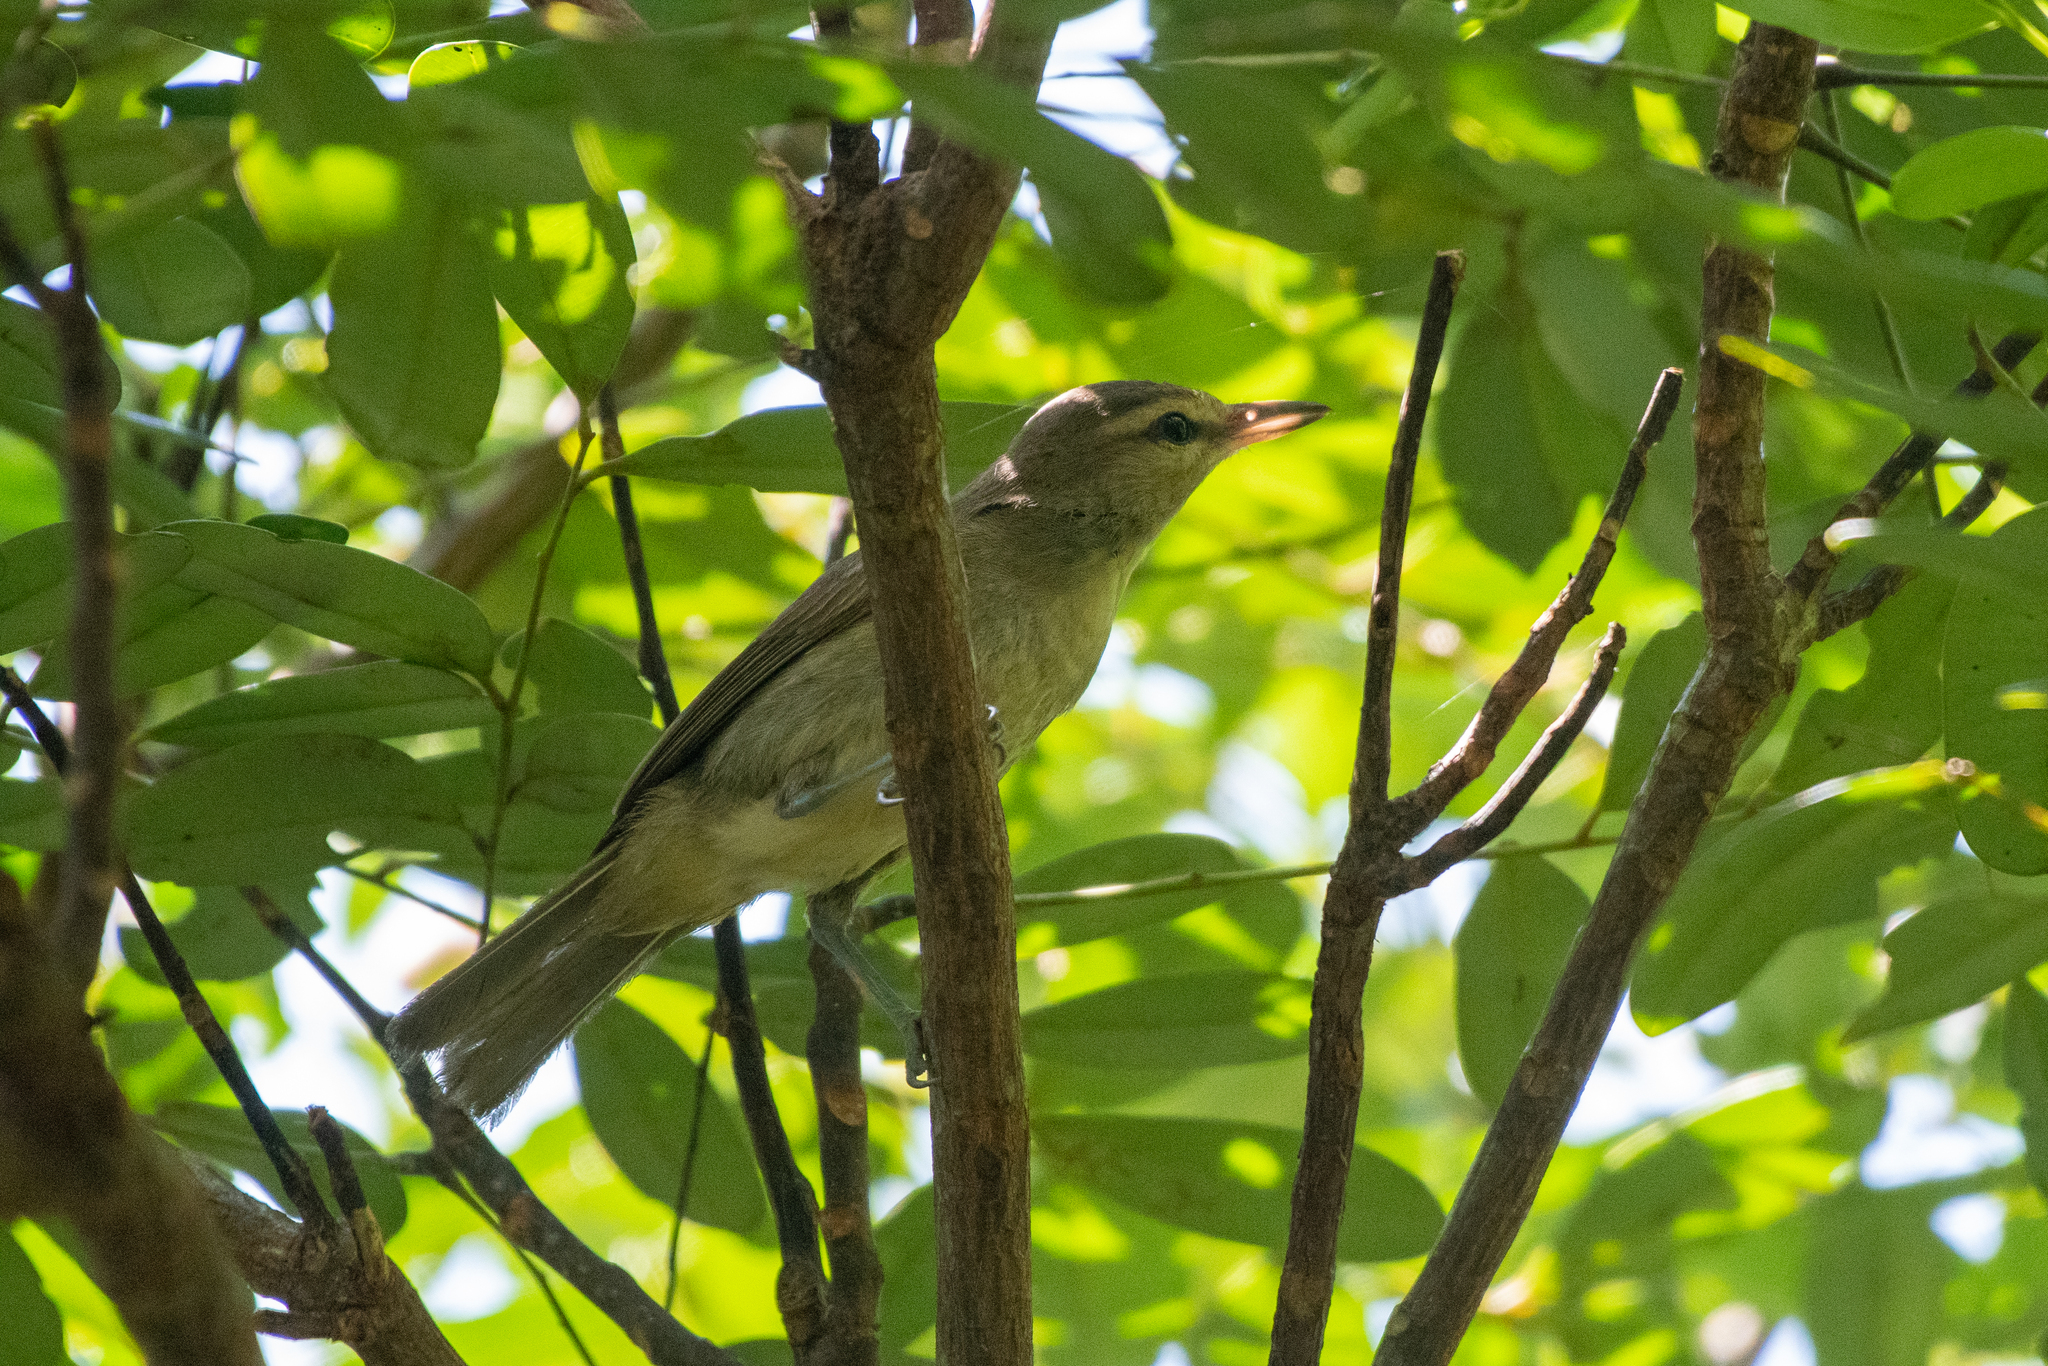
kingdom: Animalia
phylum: Chordata
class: Aves
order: Passeriformes
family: Vireonidae
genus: Vireo
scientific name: Vireo magister
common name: Yucatan vireo
